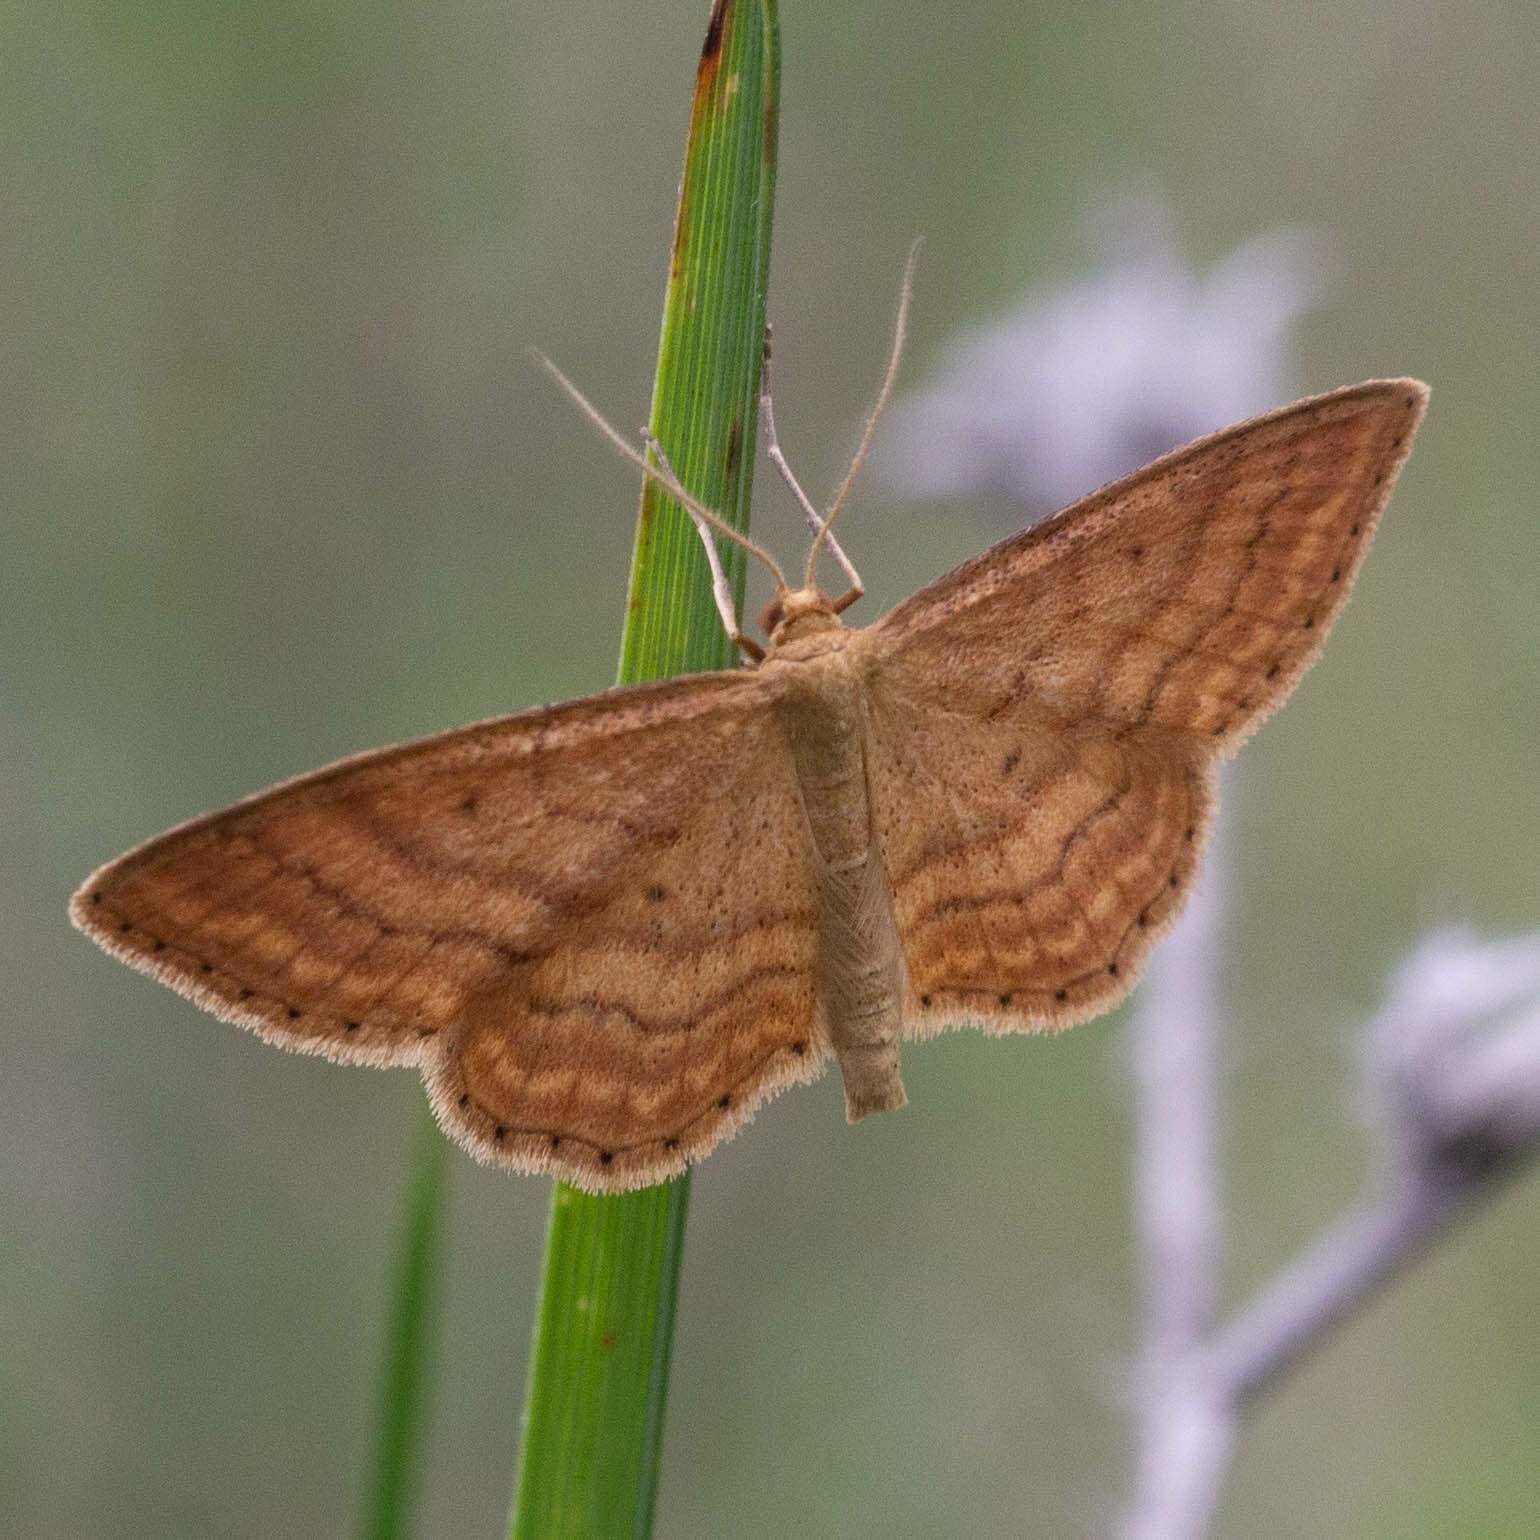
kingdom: Animalia
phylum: Arthropoda
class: Insecta
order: Lepidoptera
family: Geometridae
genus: Idaea
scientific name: Idaea ochrata
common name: Bright wave
